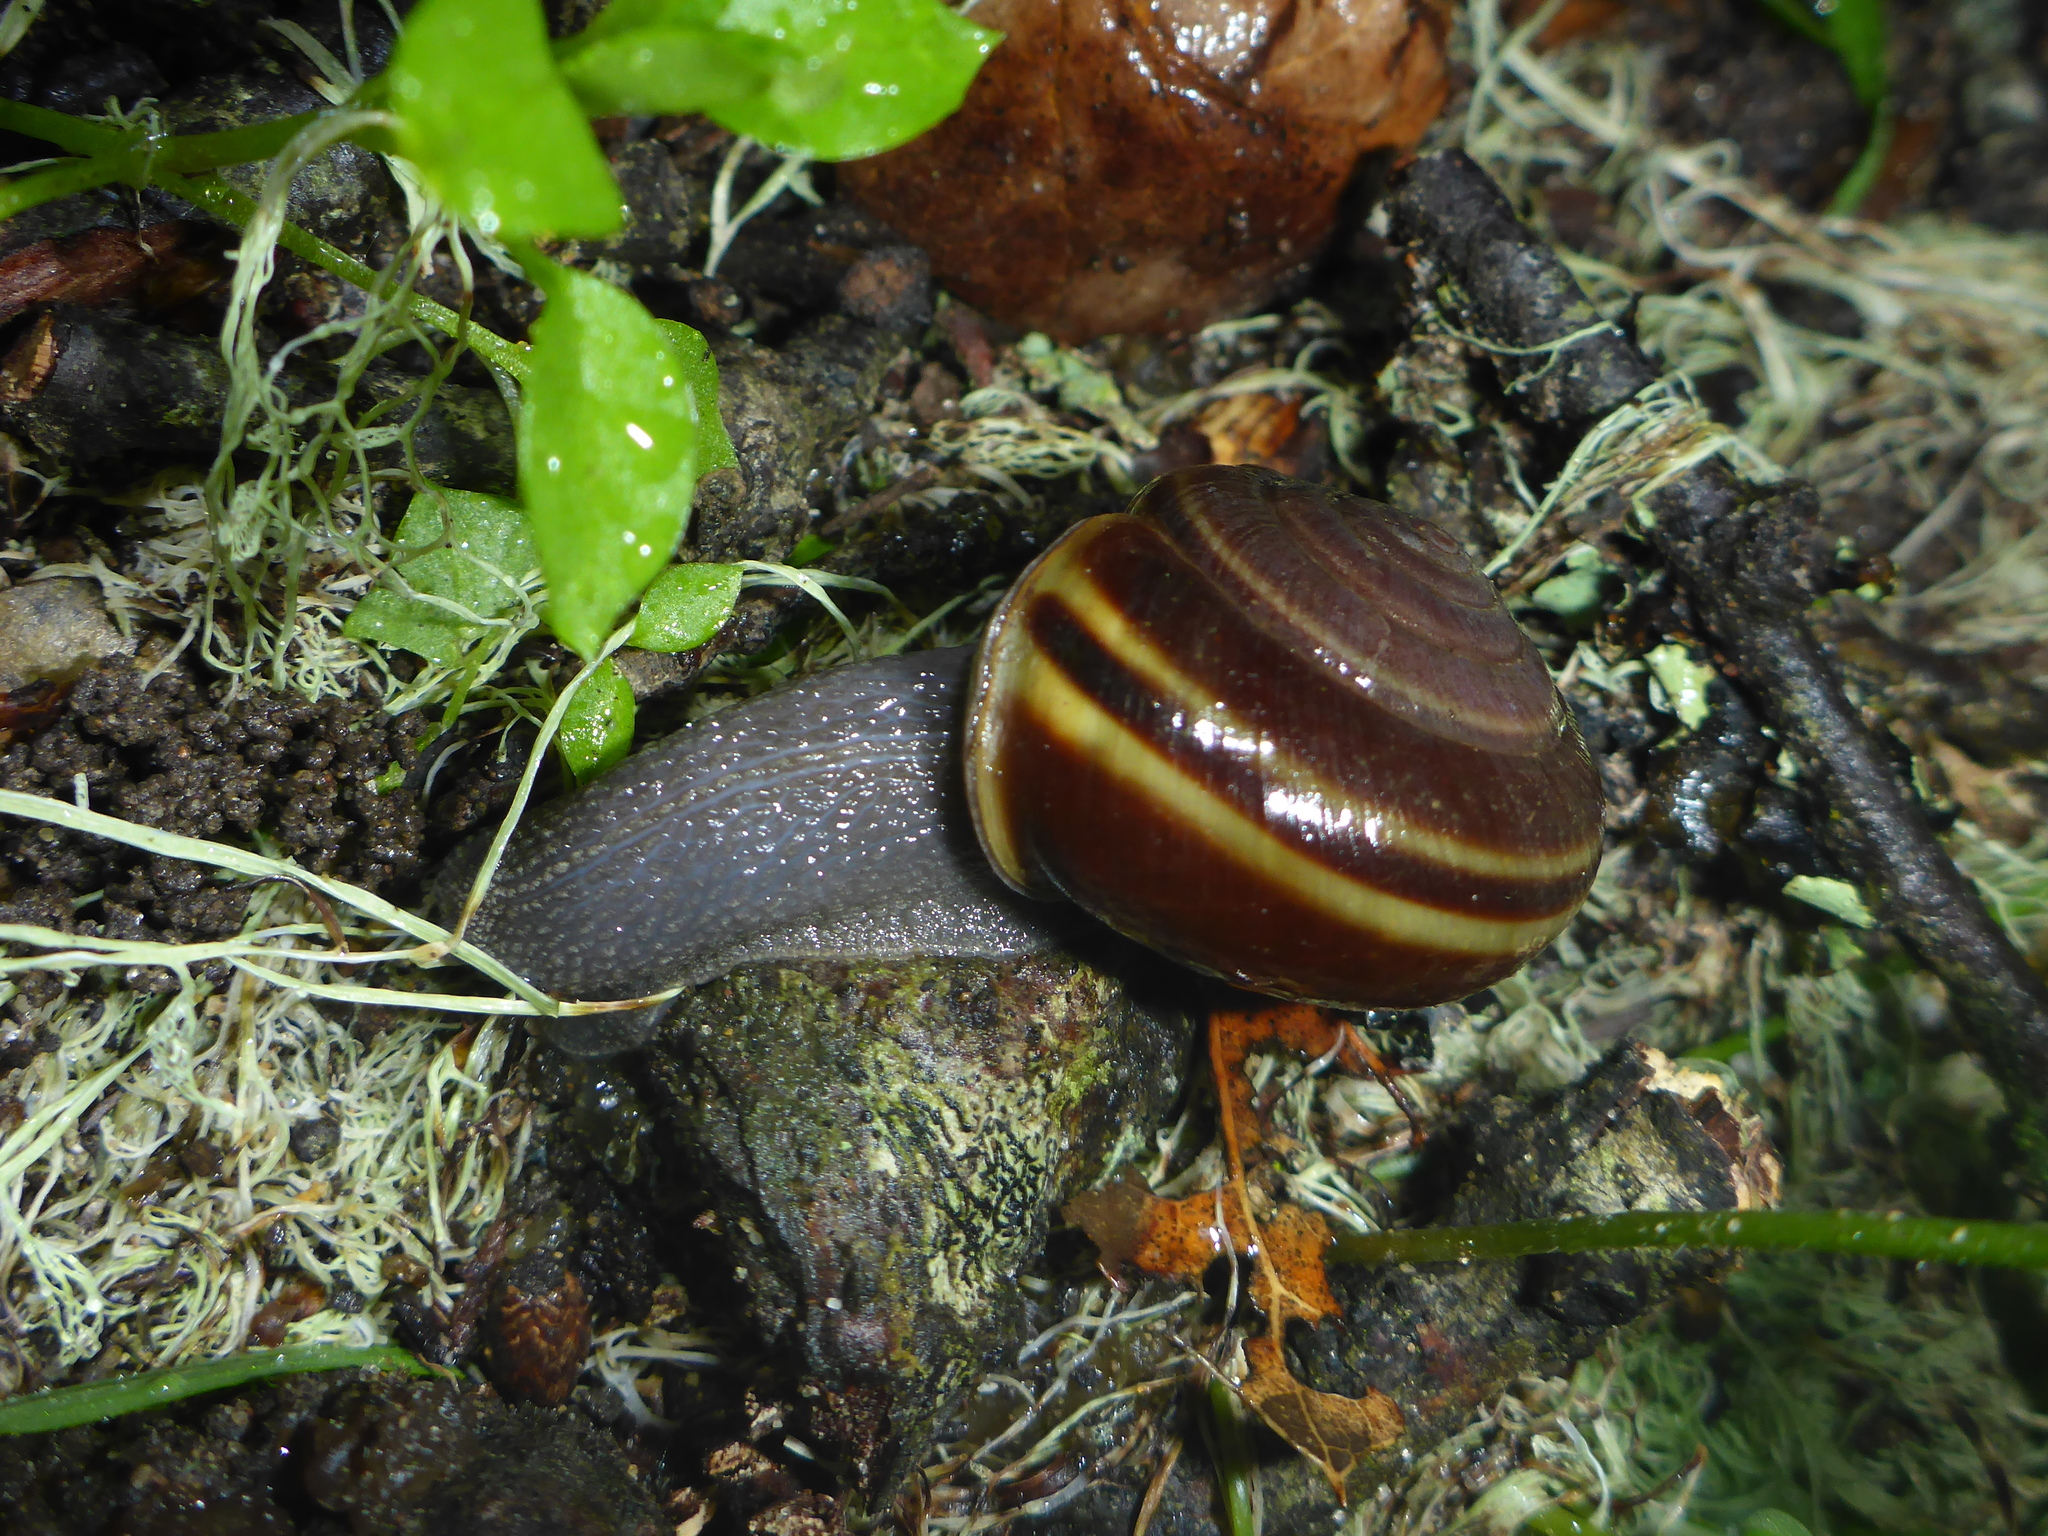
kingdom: Animalia
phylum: Mollusca
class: Gastropoda
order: Stylommatophora
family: Xanthonychidae
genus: Helminthoglypta
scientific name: Helminthoglypta sequoicola
